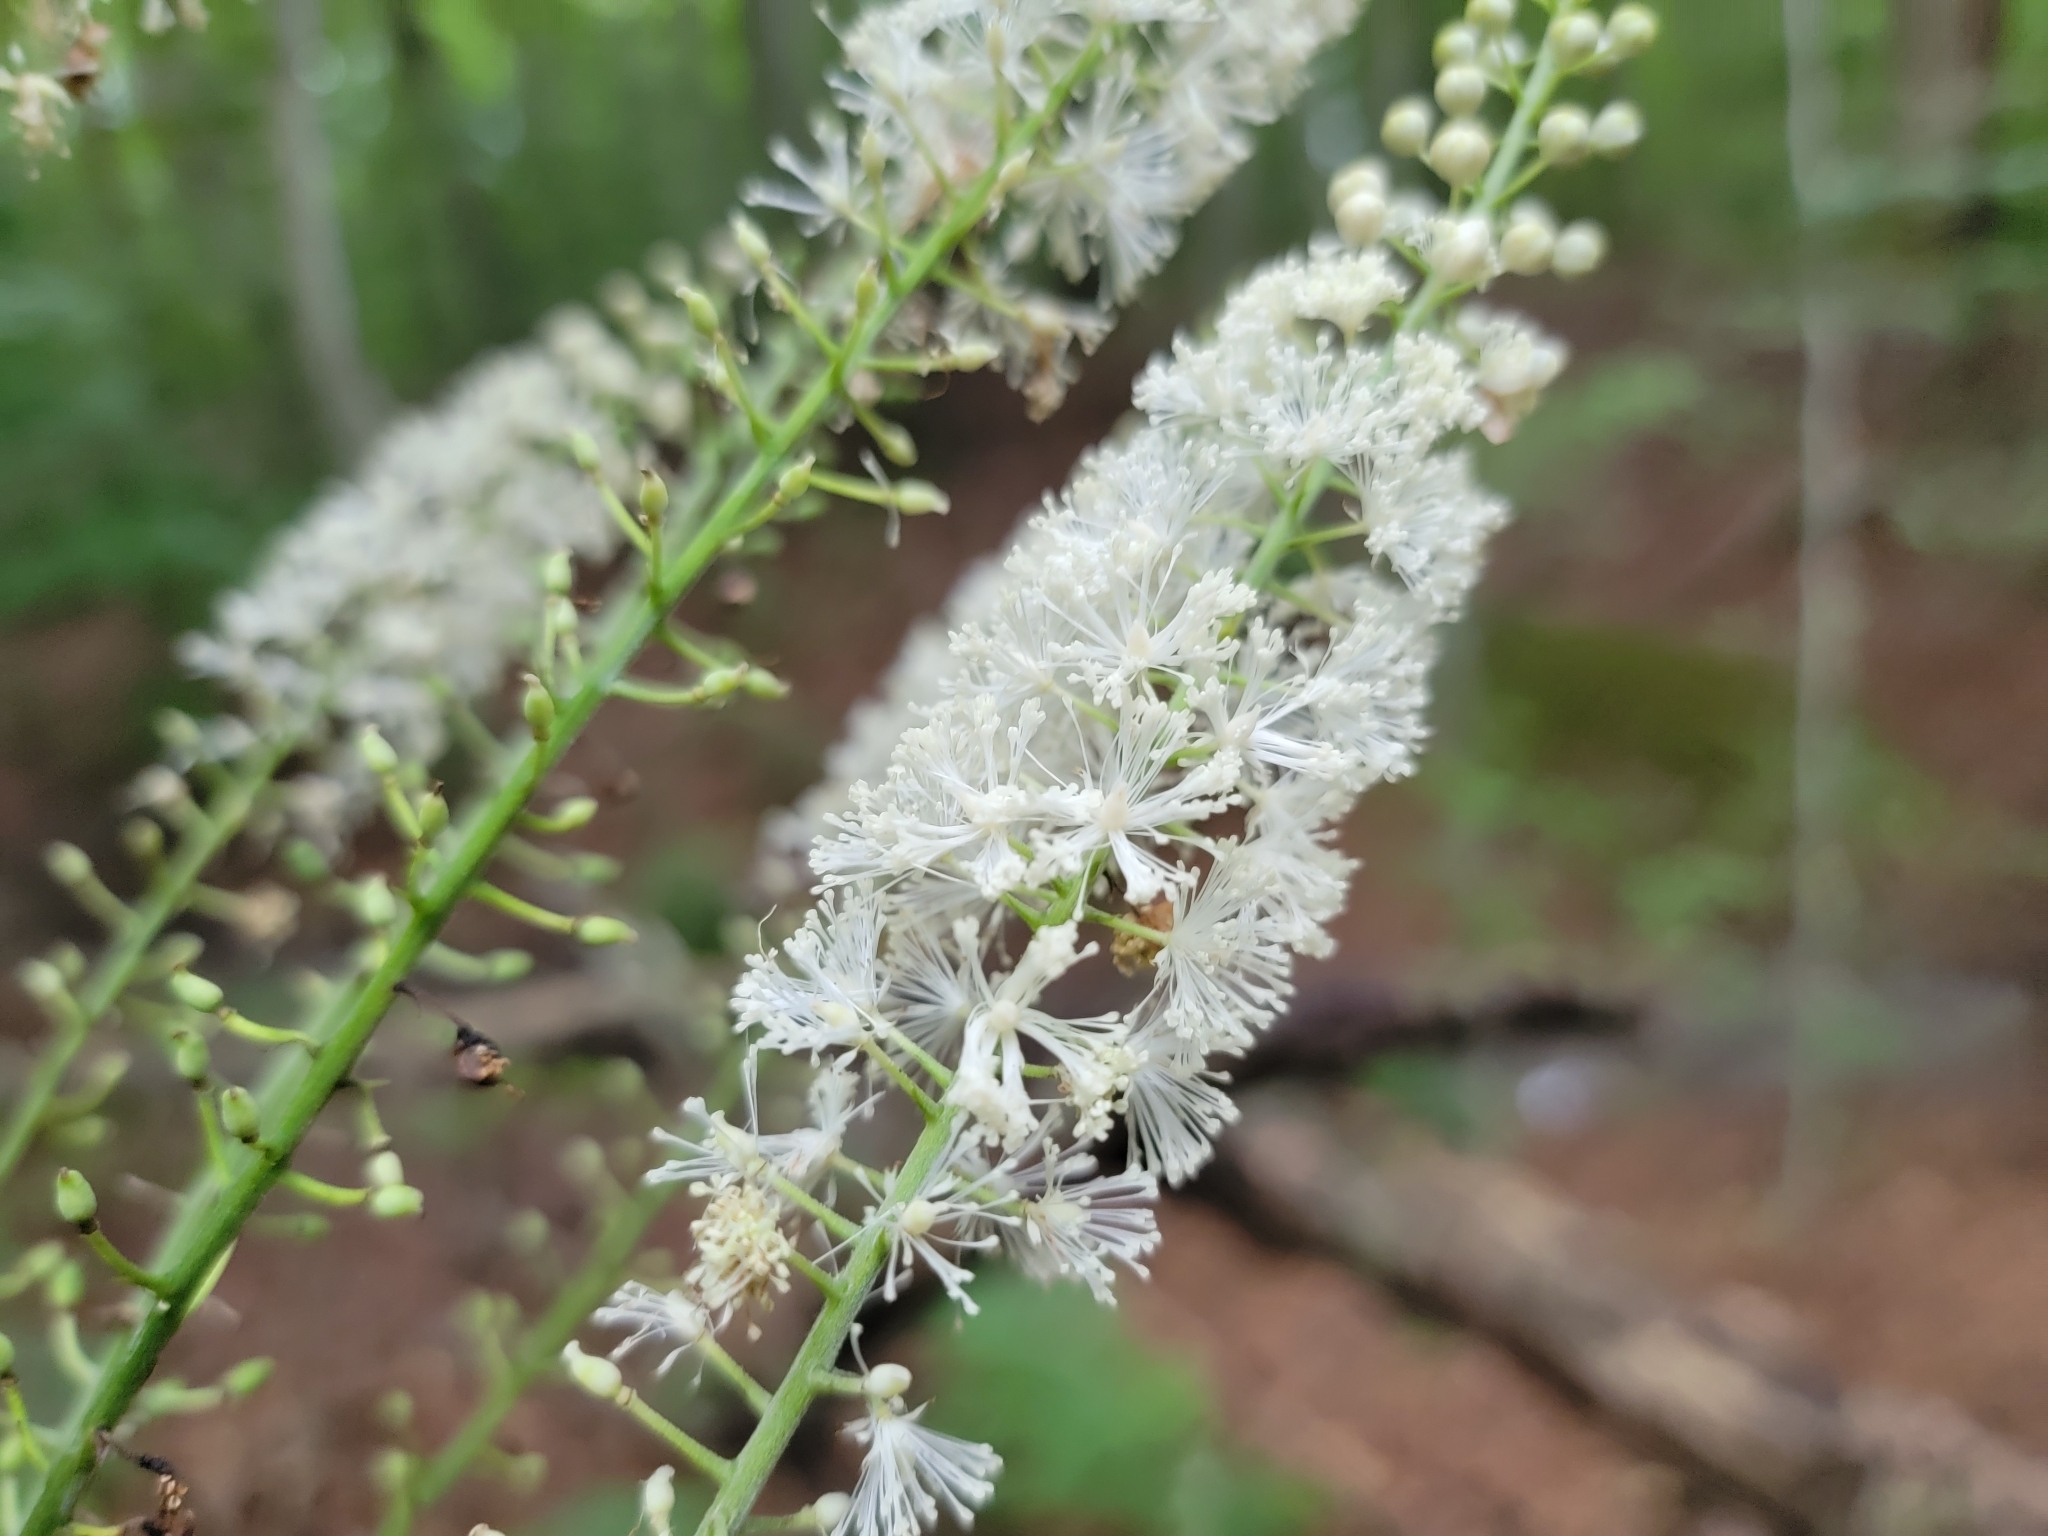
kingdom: Plantae
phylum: Tracheophyta
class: Magnoliopsida
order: Ranunculales
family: Ranunculaceae
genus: Actaea
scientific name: Actaea racemosa
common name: Black cohosh
